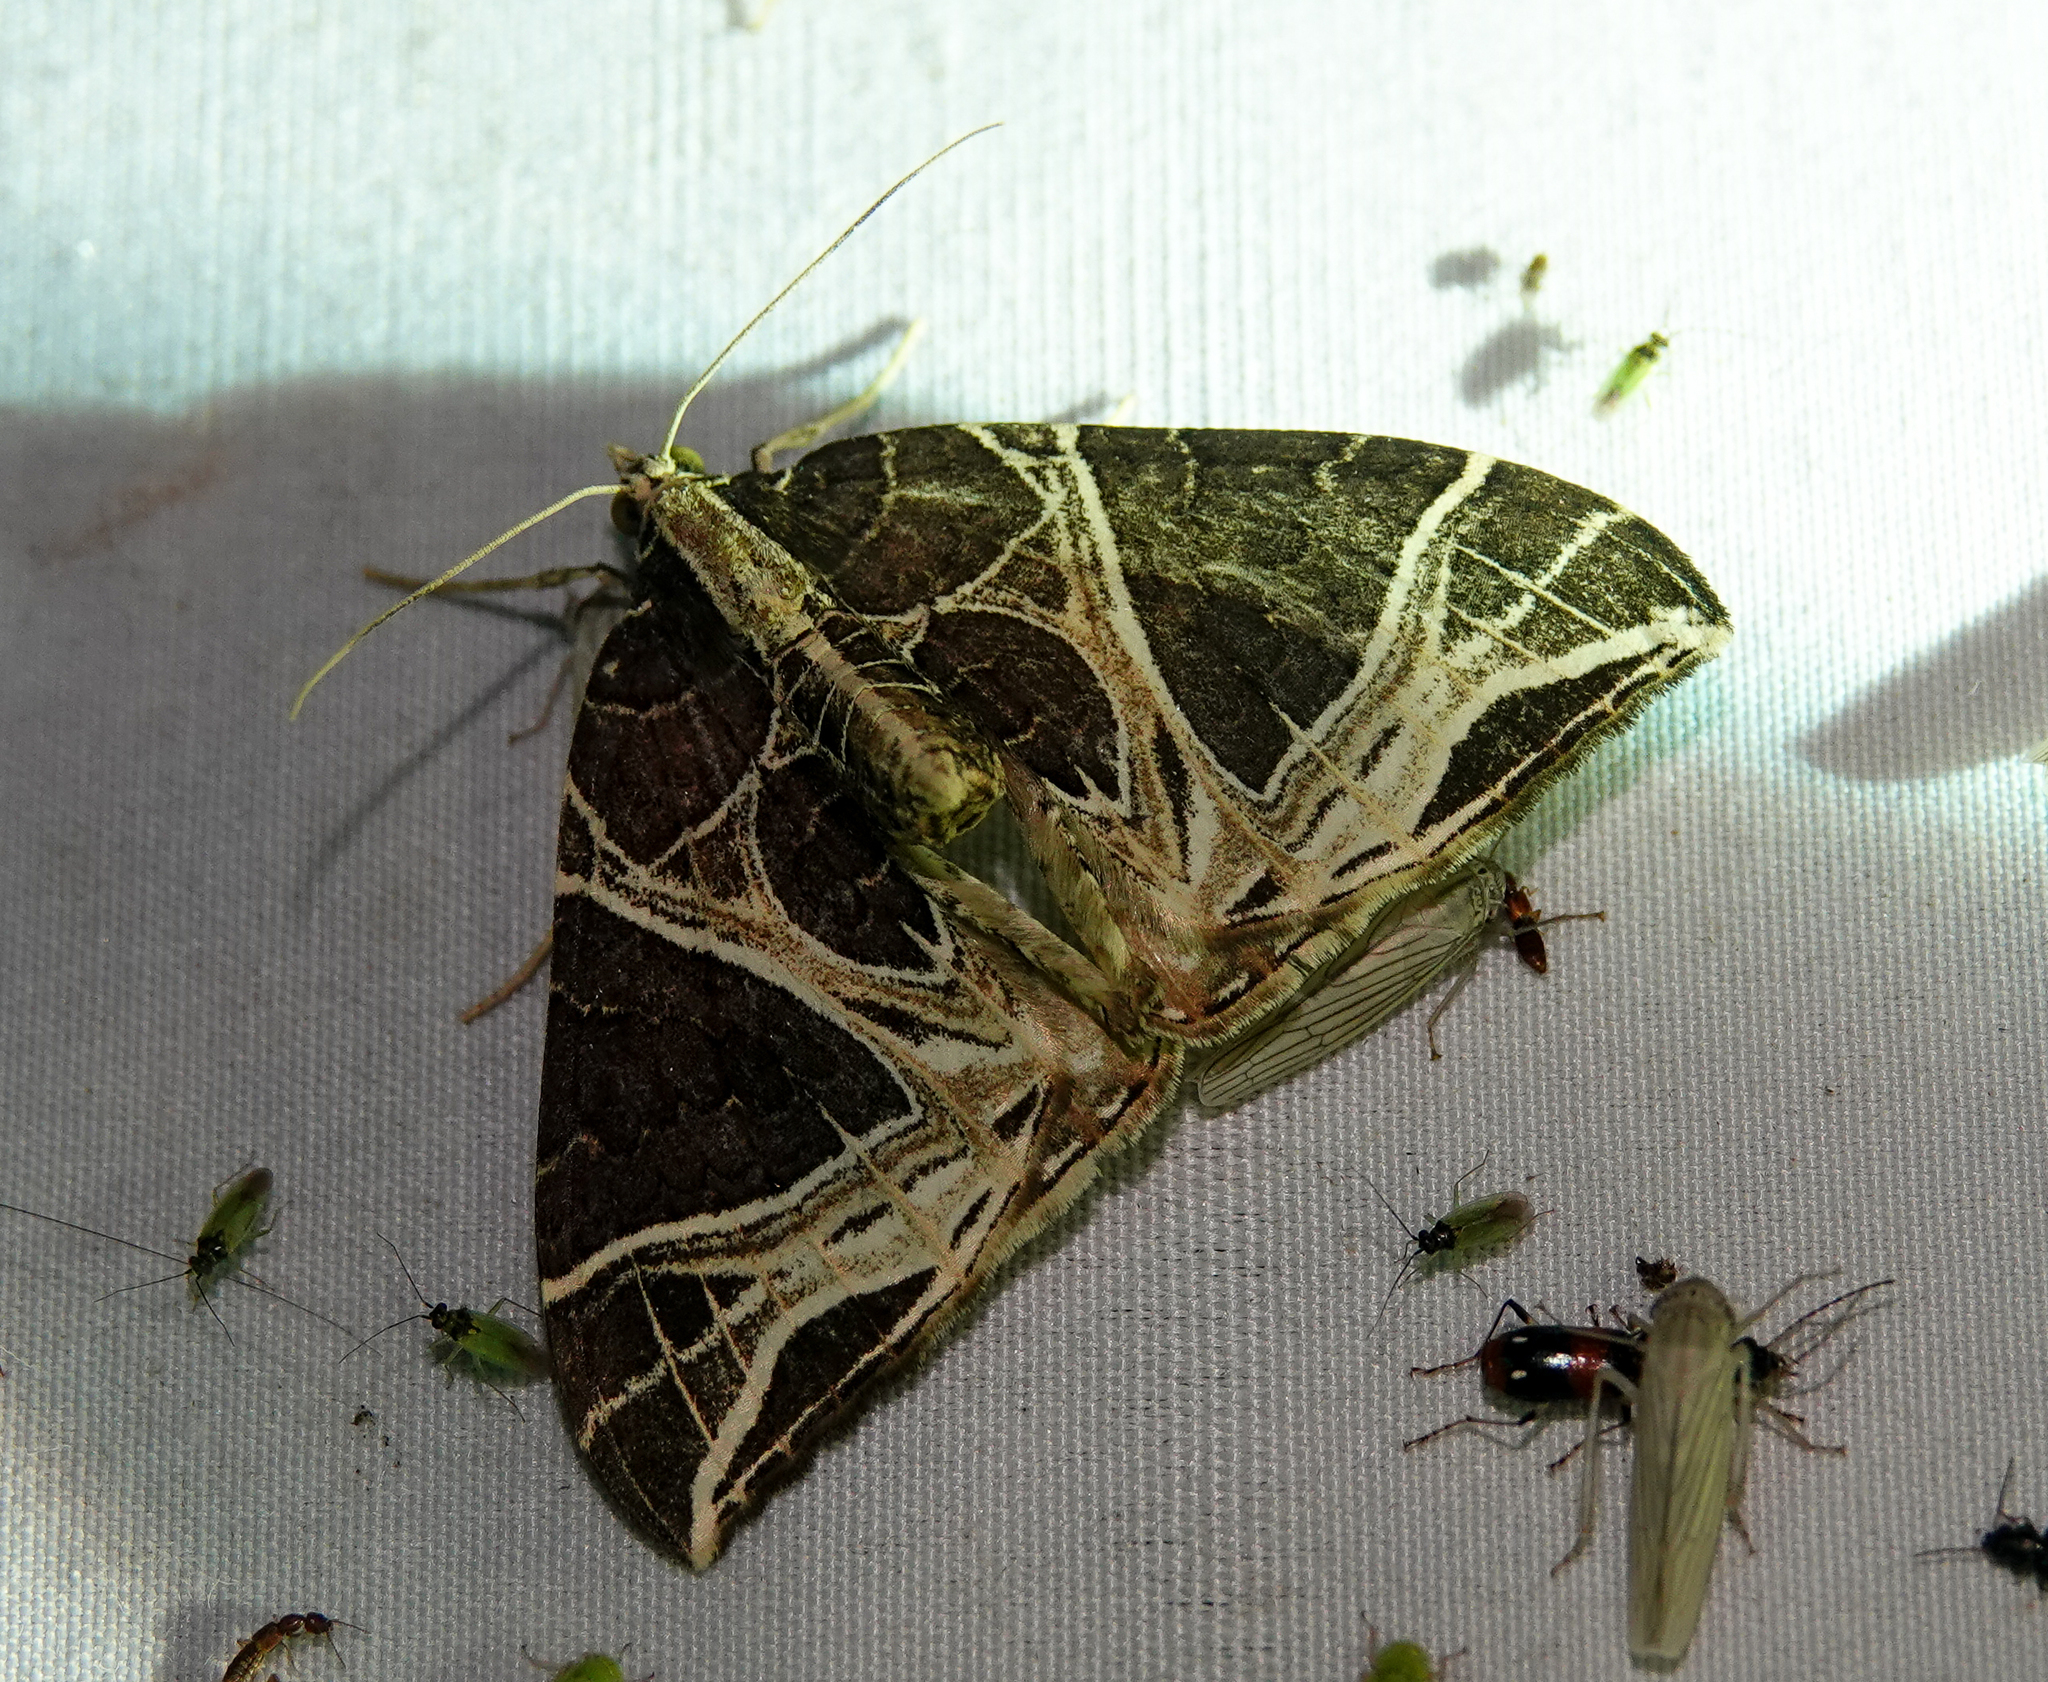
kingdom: Animalia
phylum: Arthropoda
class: Insecta
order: Lepidoptera
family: Geometridae
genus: Ecliptopera
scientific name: Ecliptopera rectilinea
